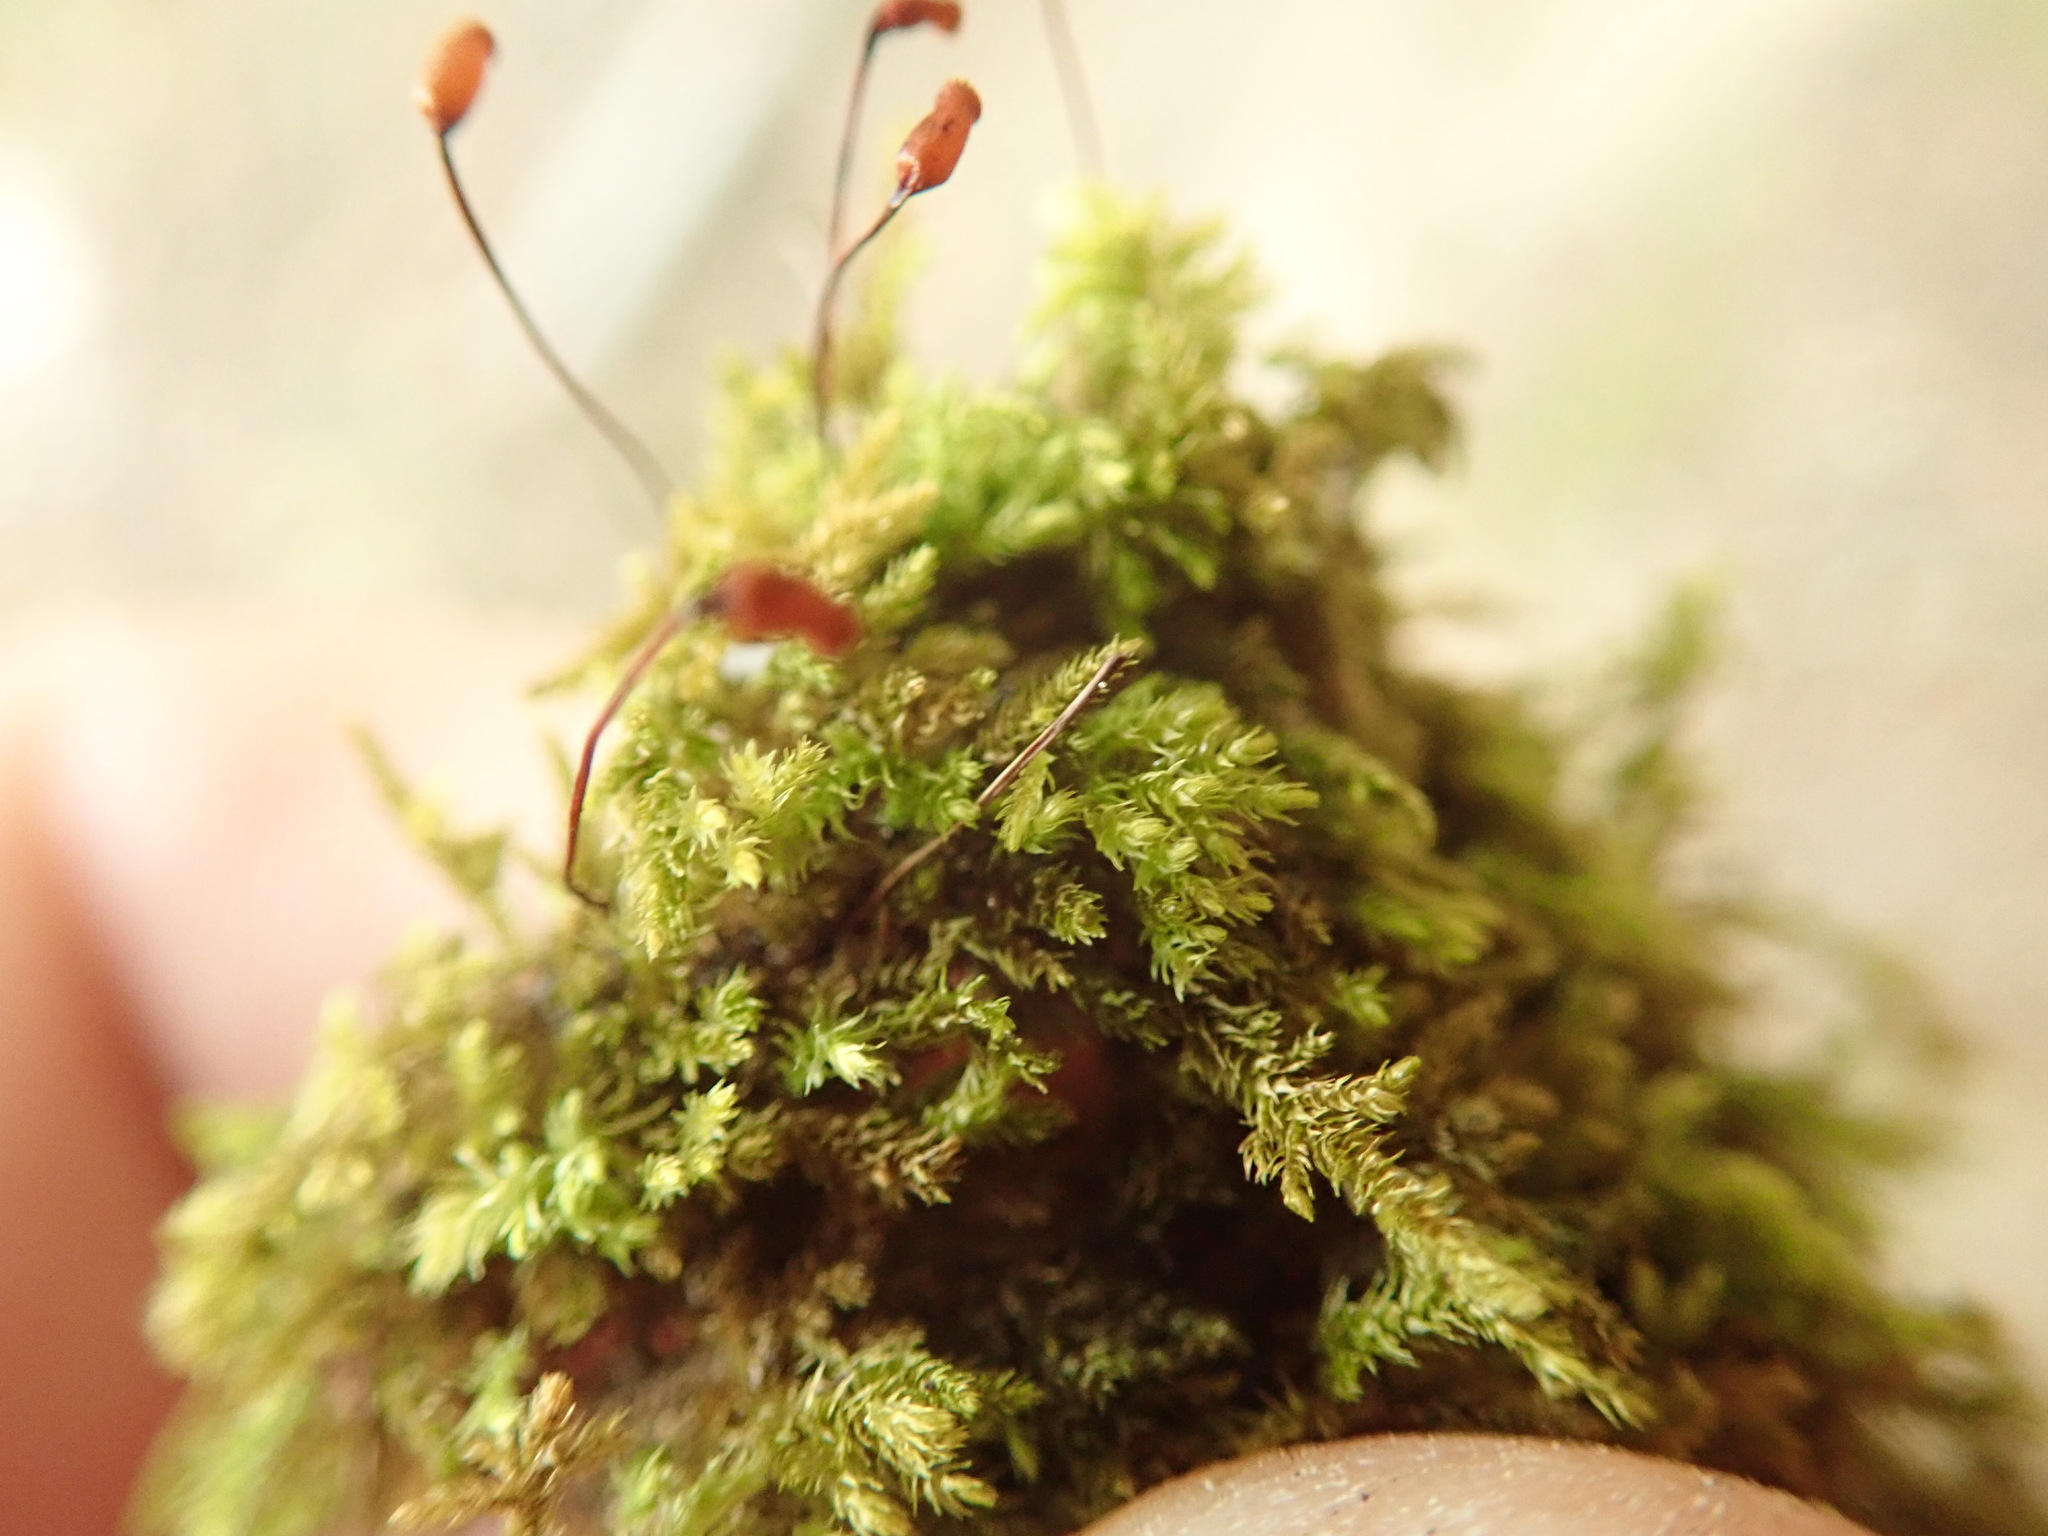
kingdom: Plantae
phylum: Bryophyta
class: Bryopsida
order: Hypnales
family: Brachytheciaceae
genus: Eurhynchiastrum
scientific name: Eurhynchiastrum pulchellum
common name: Elegant beaked moss
